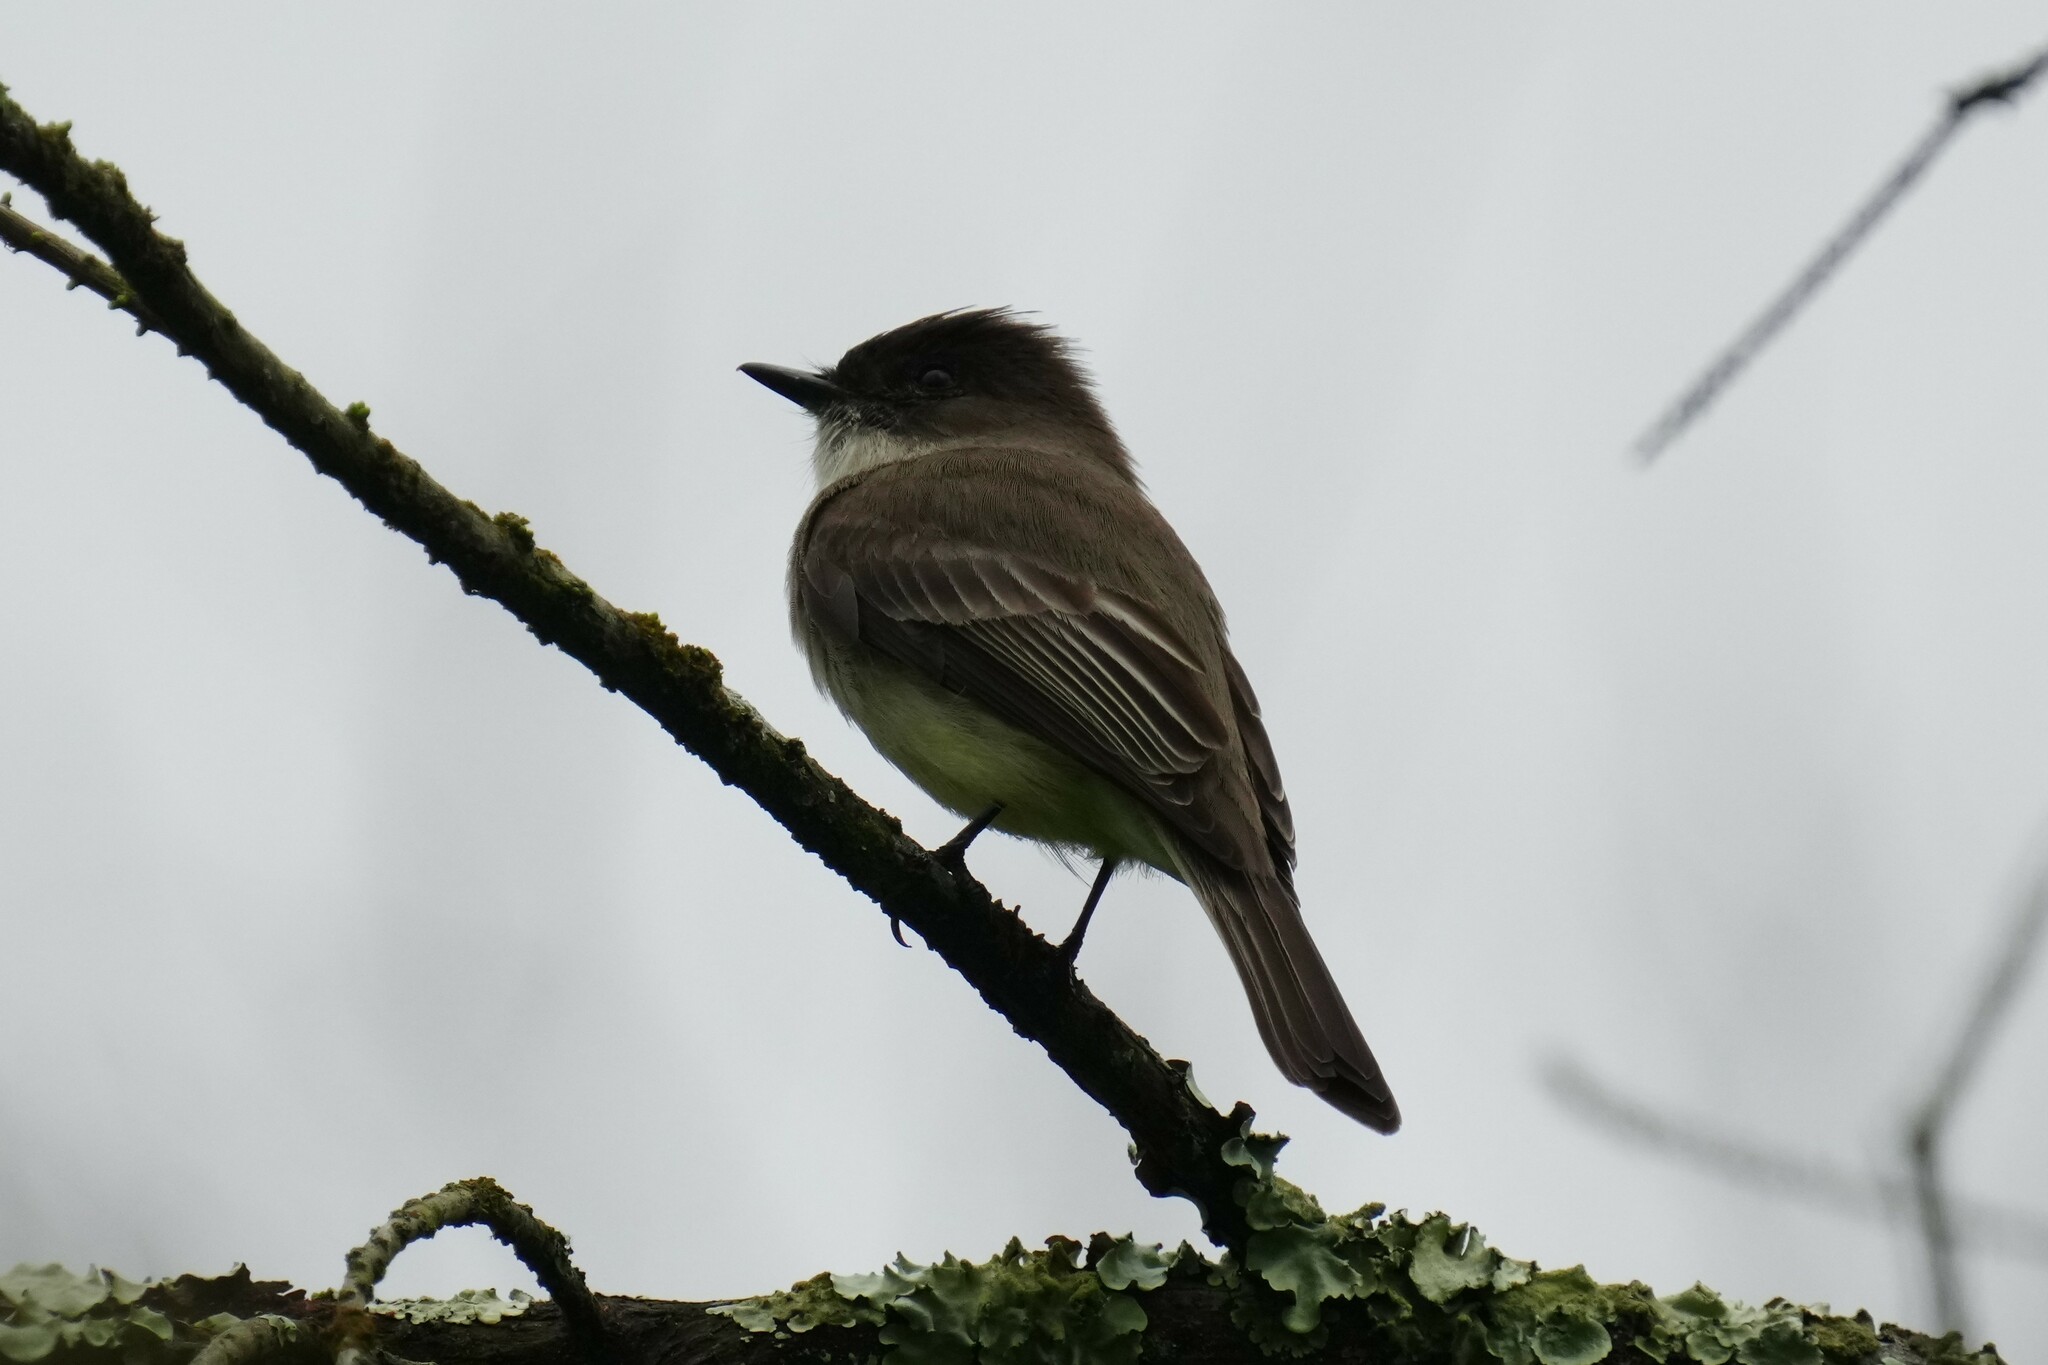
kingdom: Animalia
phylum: Chordata
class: Aves
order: Passeriformes
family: Tyrannidae
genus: Sayornis
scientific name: Sayornis phoebe
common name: Eastern phoebe
